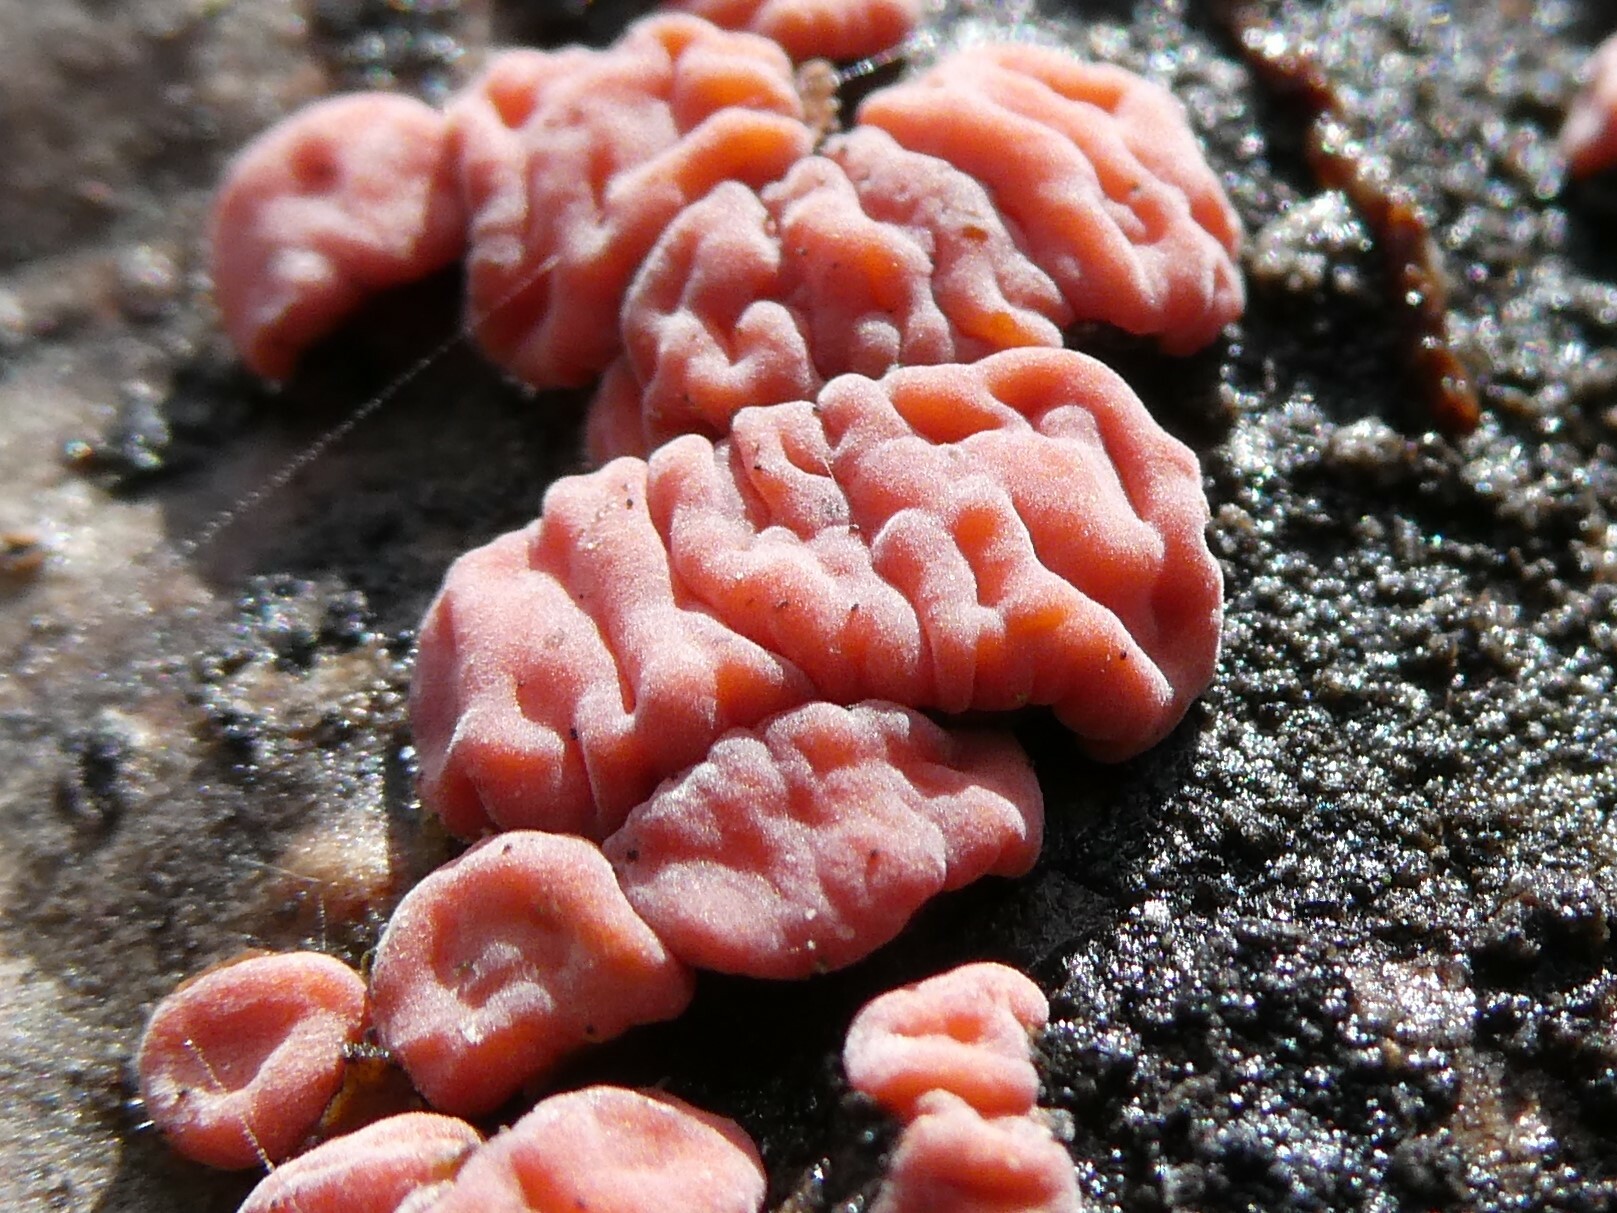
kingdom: Fungi
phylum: Basidiomycota
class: Agaricomycetes
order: Russulales
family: Peniophoraceae
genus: Peniophora
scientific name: Peniophora rufa
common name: Red tree brain fungus
